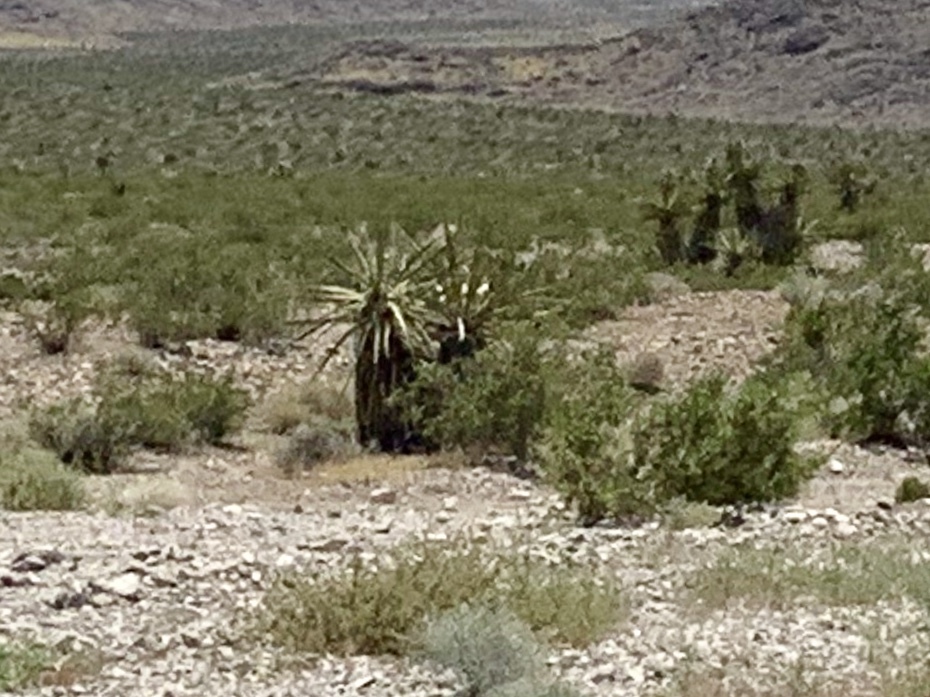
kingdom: Plantae
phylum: Tracheophyta
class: Liliopsida
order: Asparagales
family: Asparagaceae
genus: Yucca
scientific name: Yucca schidigera
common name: Mojave yucca
